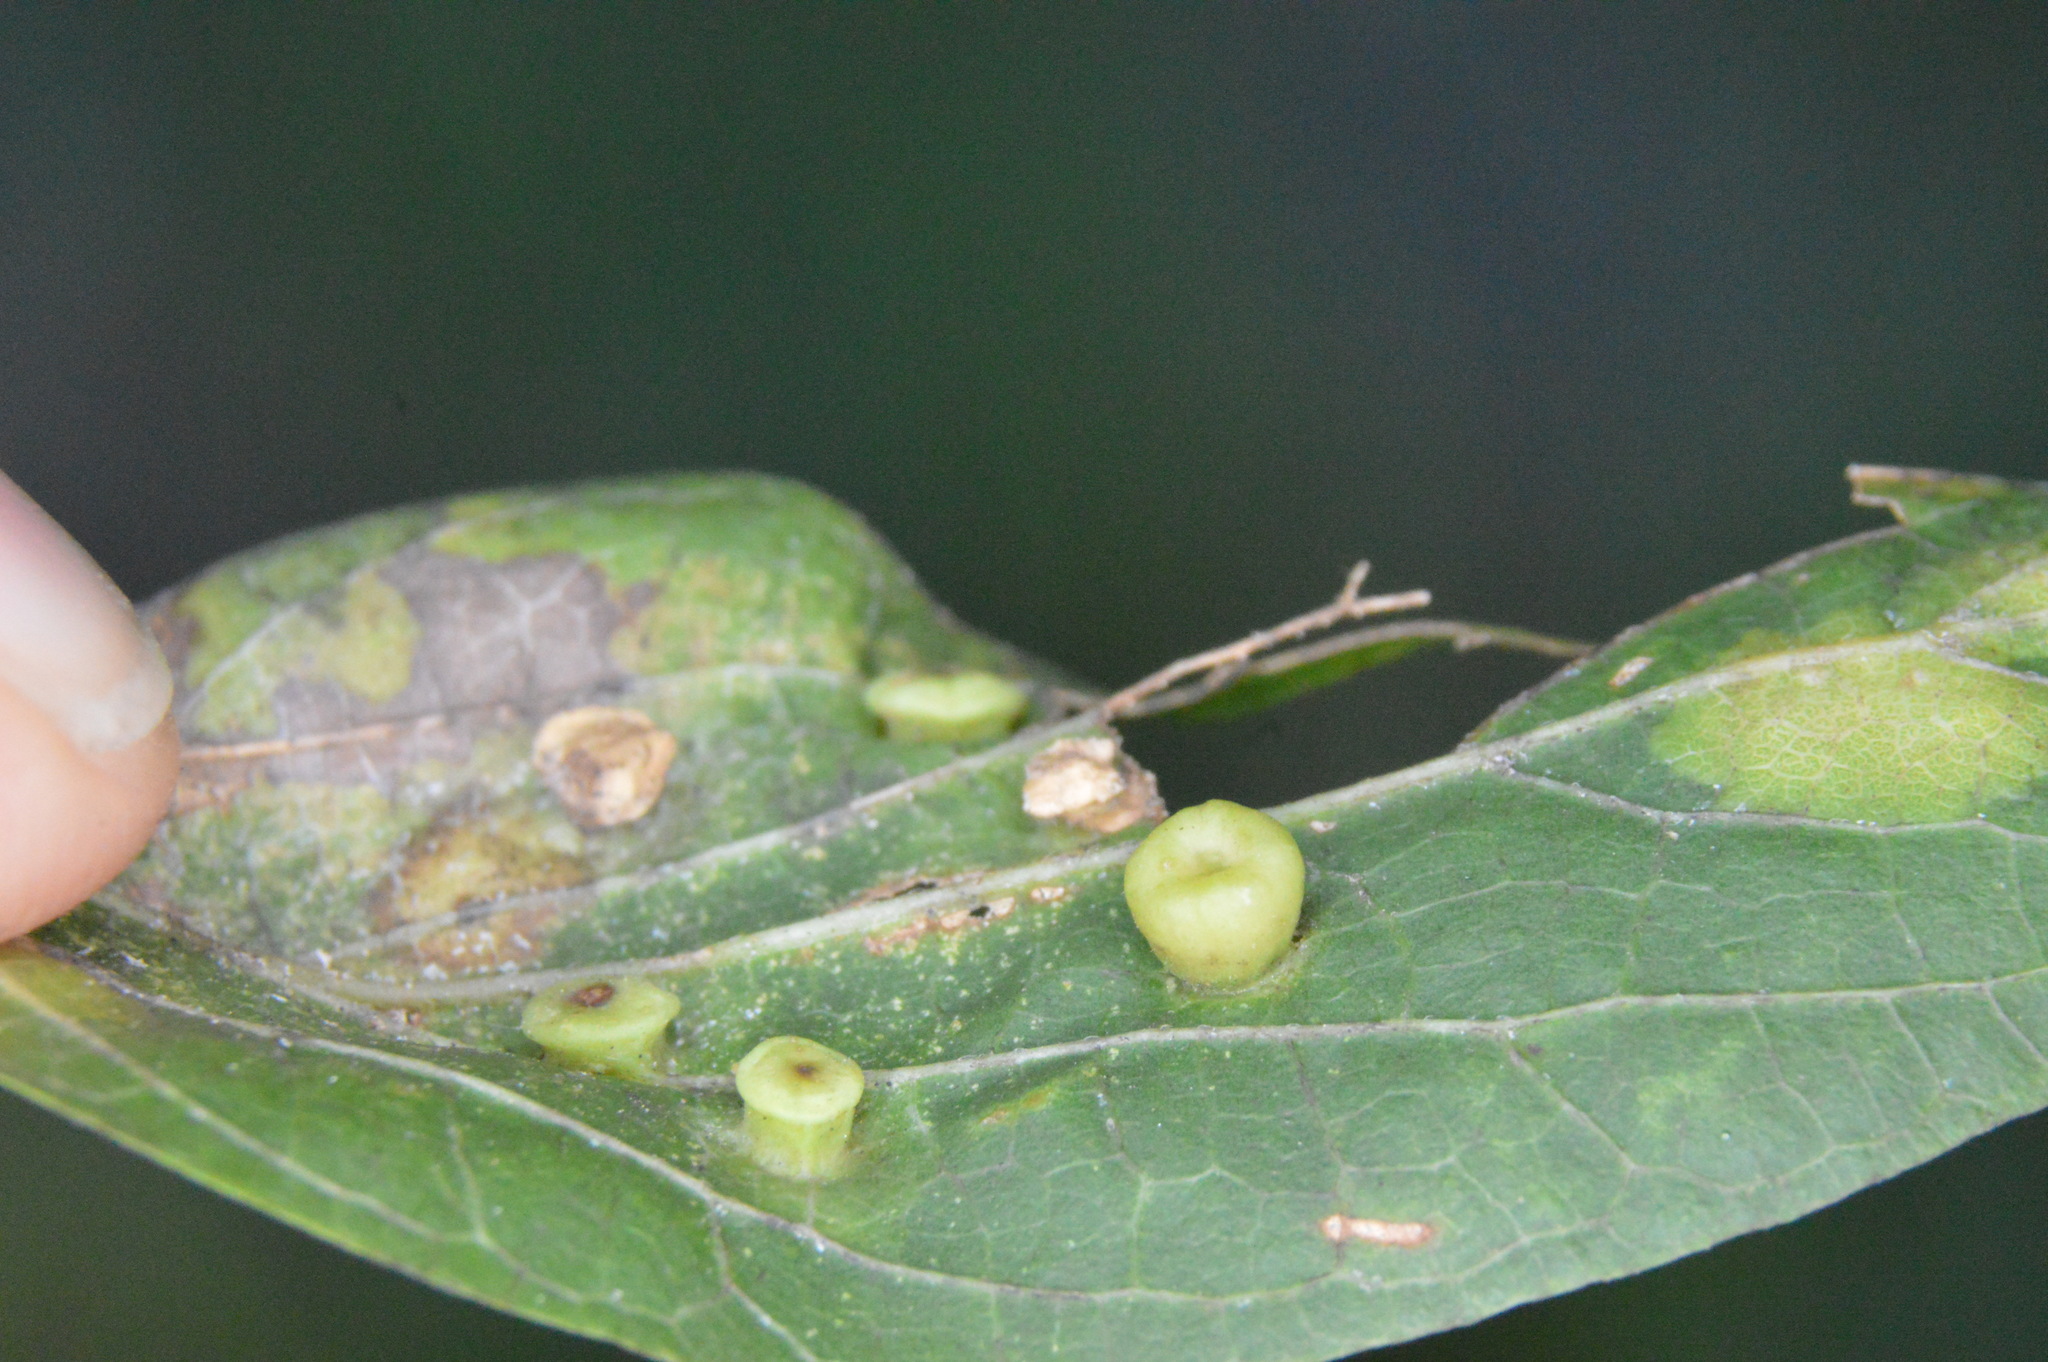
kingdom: Animalia
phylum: Arthropoda
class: Insecta
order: Hemiptera
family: Aphalaridae
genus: Pachypsylla
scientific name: Pachypsylla celtidismamma
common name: Hackberry nipplegall psyllid
